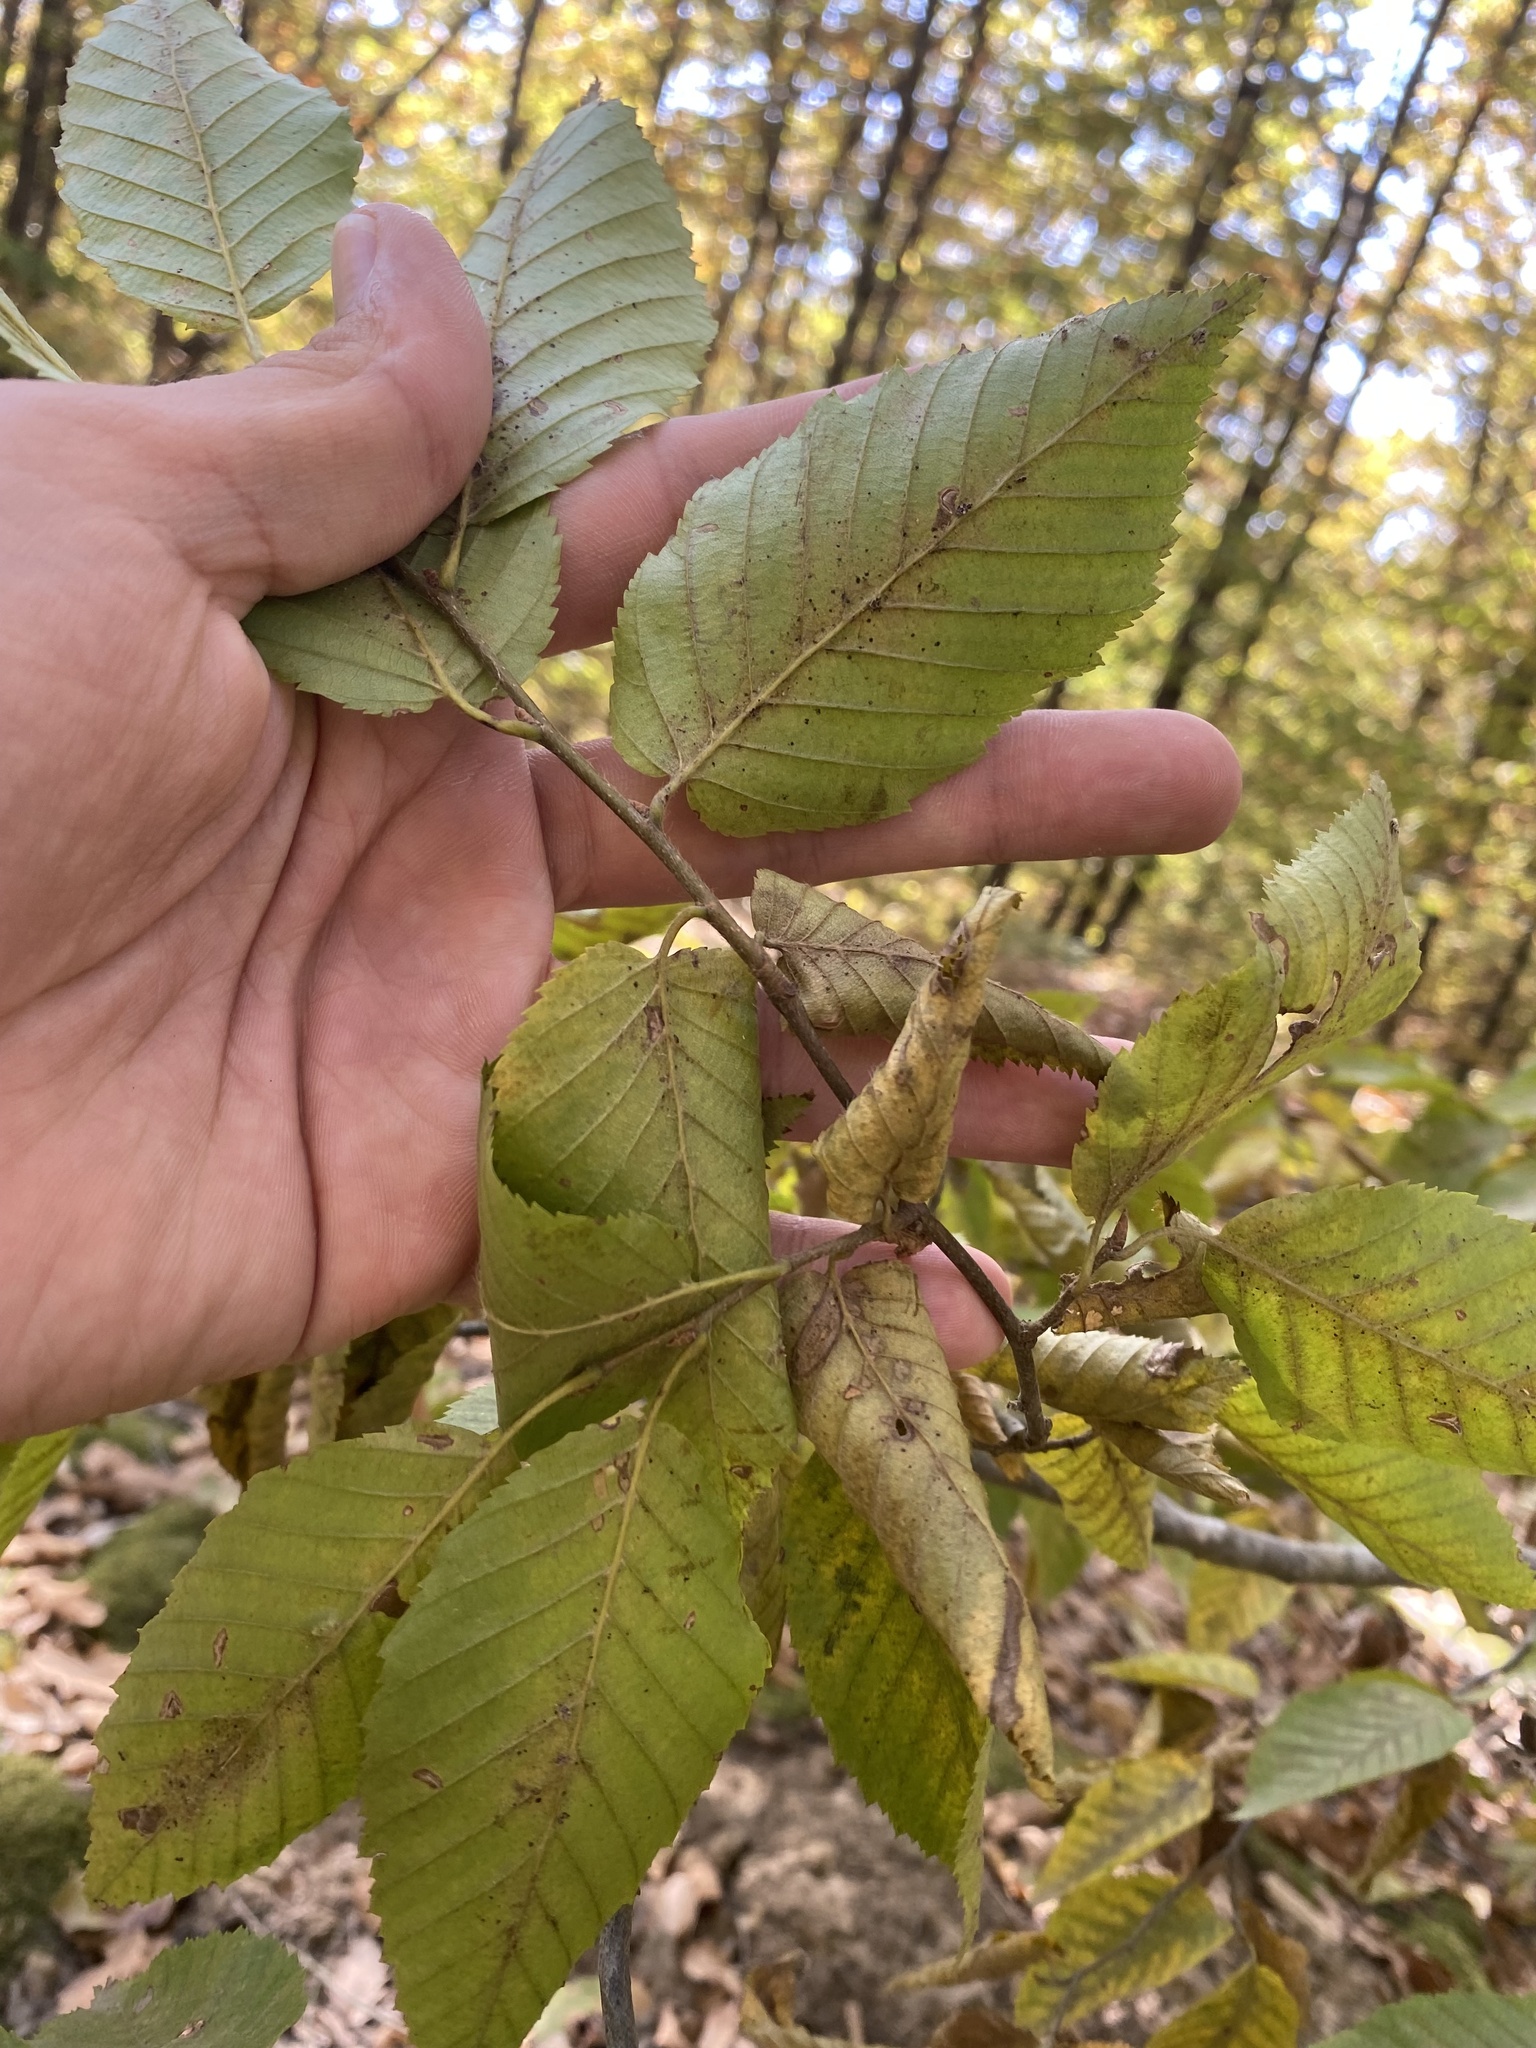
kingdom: Plantae
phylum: Tracheophyta
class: Magnoliopsida
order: Fagales
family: Betulaceae
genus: Carpinus
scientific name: Carpinus betulus
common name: Hornbeam
